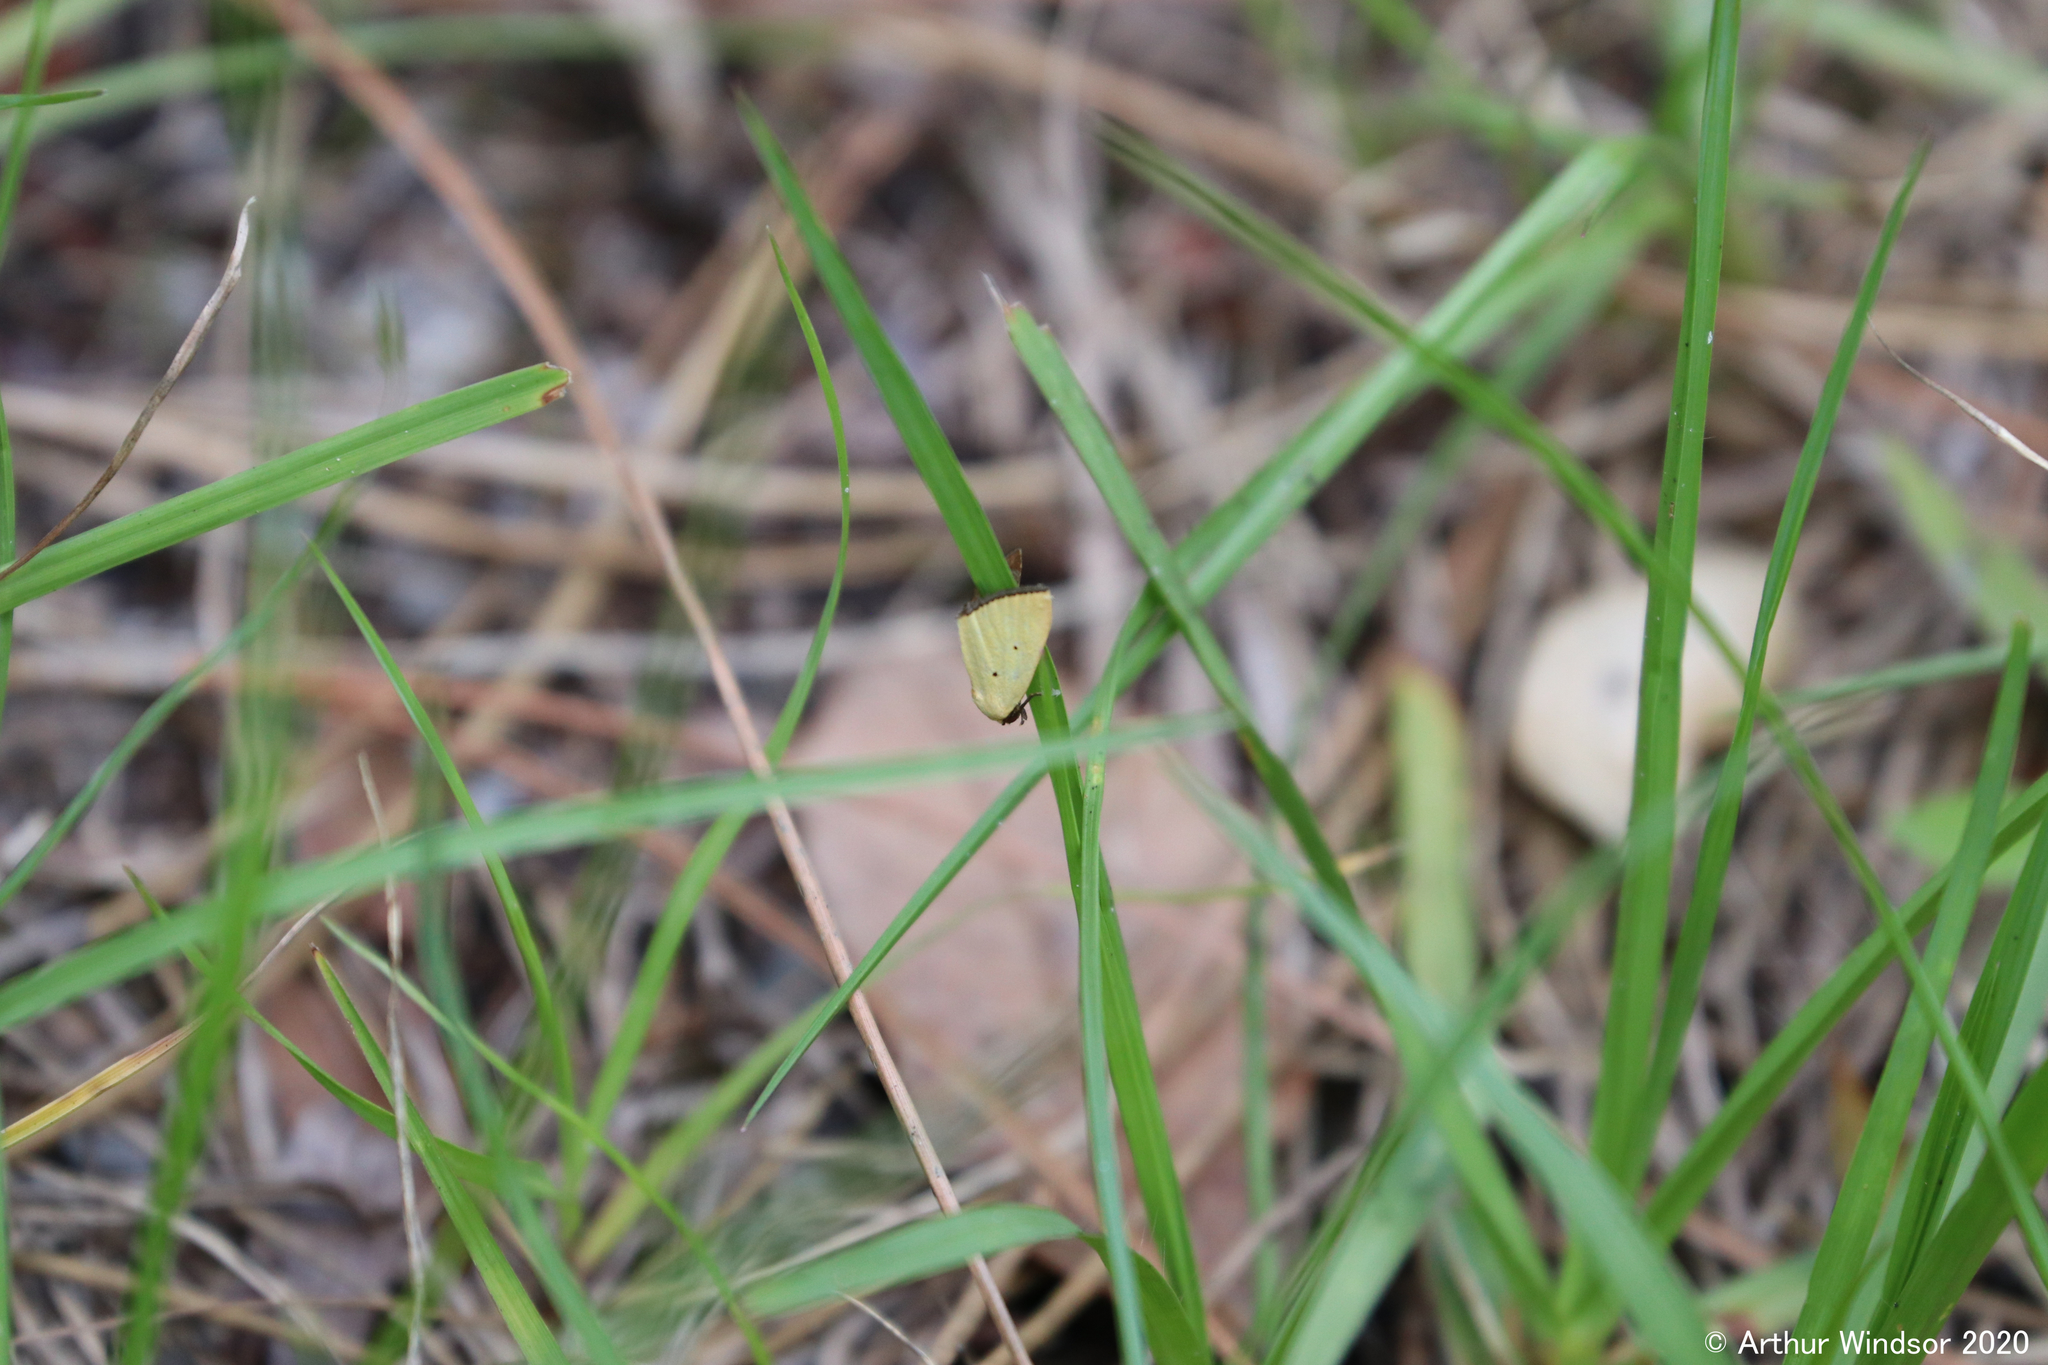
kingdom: Animalia
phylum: Arthropoda
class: Insecta
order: Lepidoptera
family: Noctuidae
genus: Marimatha
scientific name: Marimatha nigrofimbria
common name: Black-bordered lemon moth
